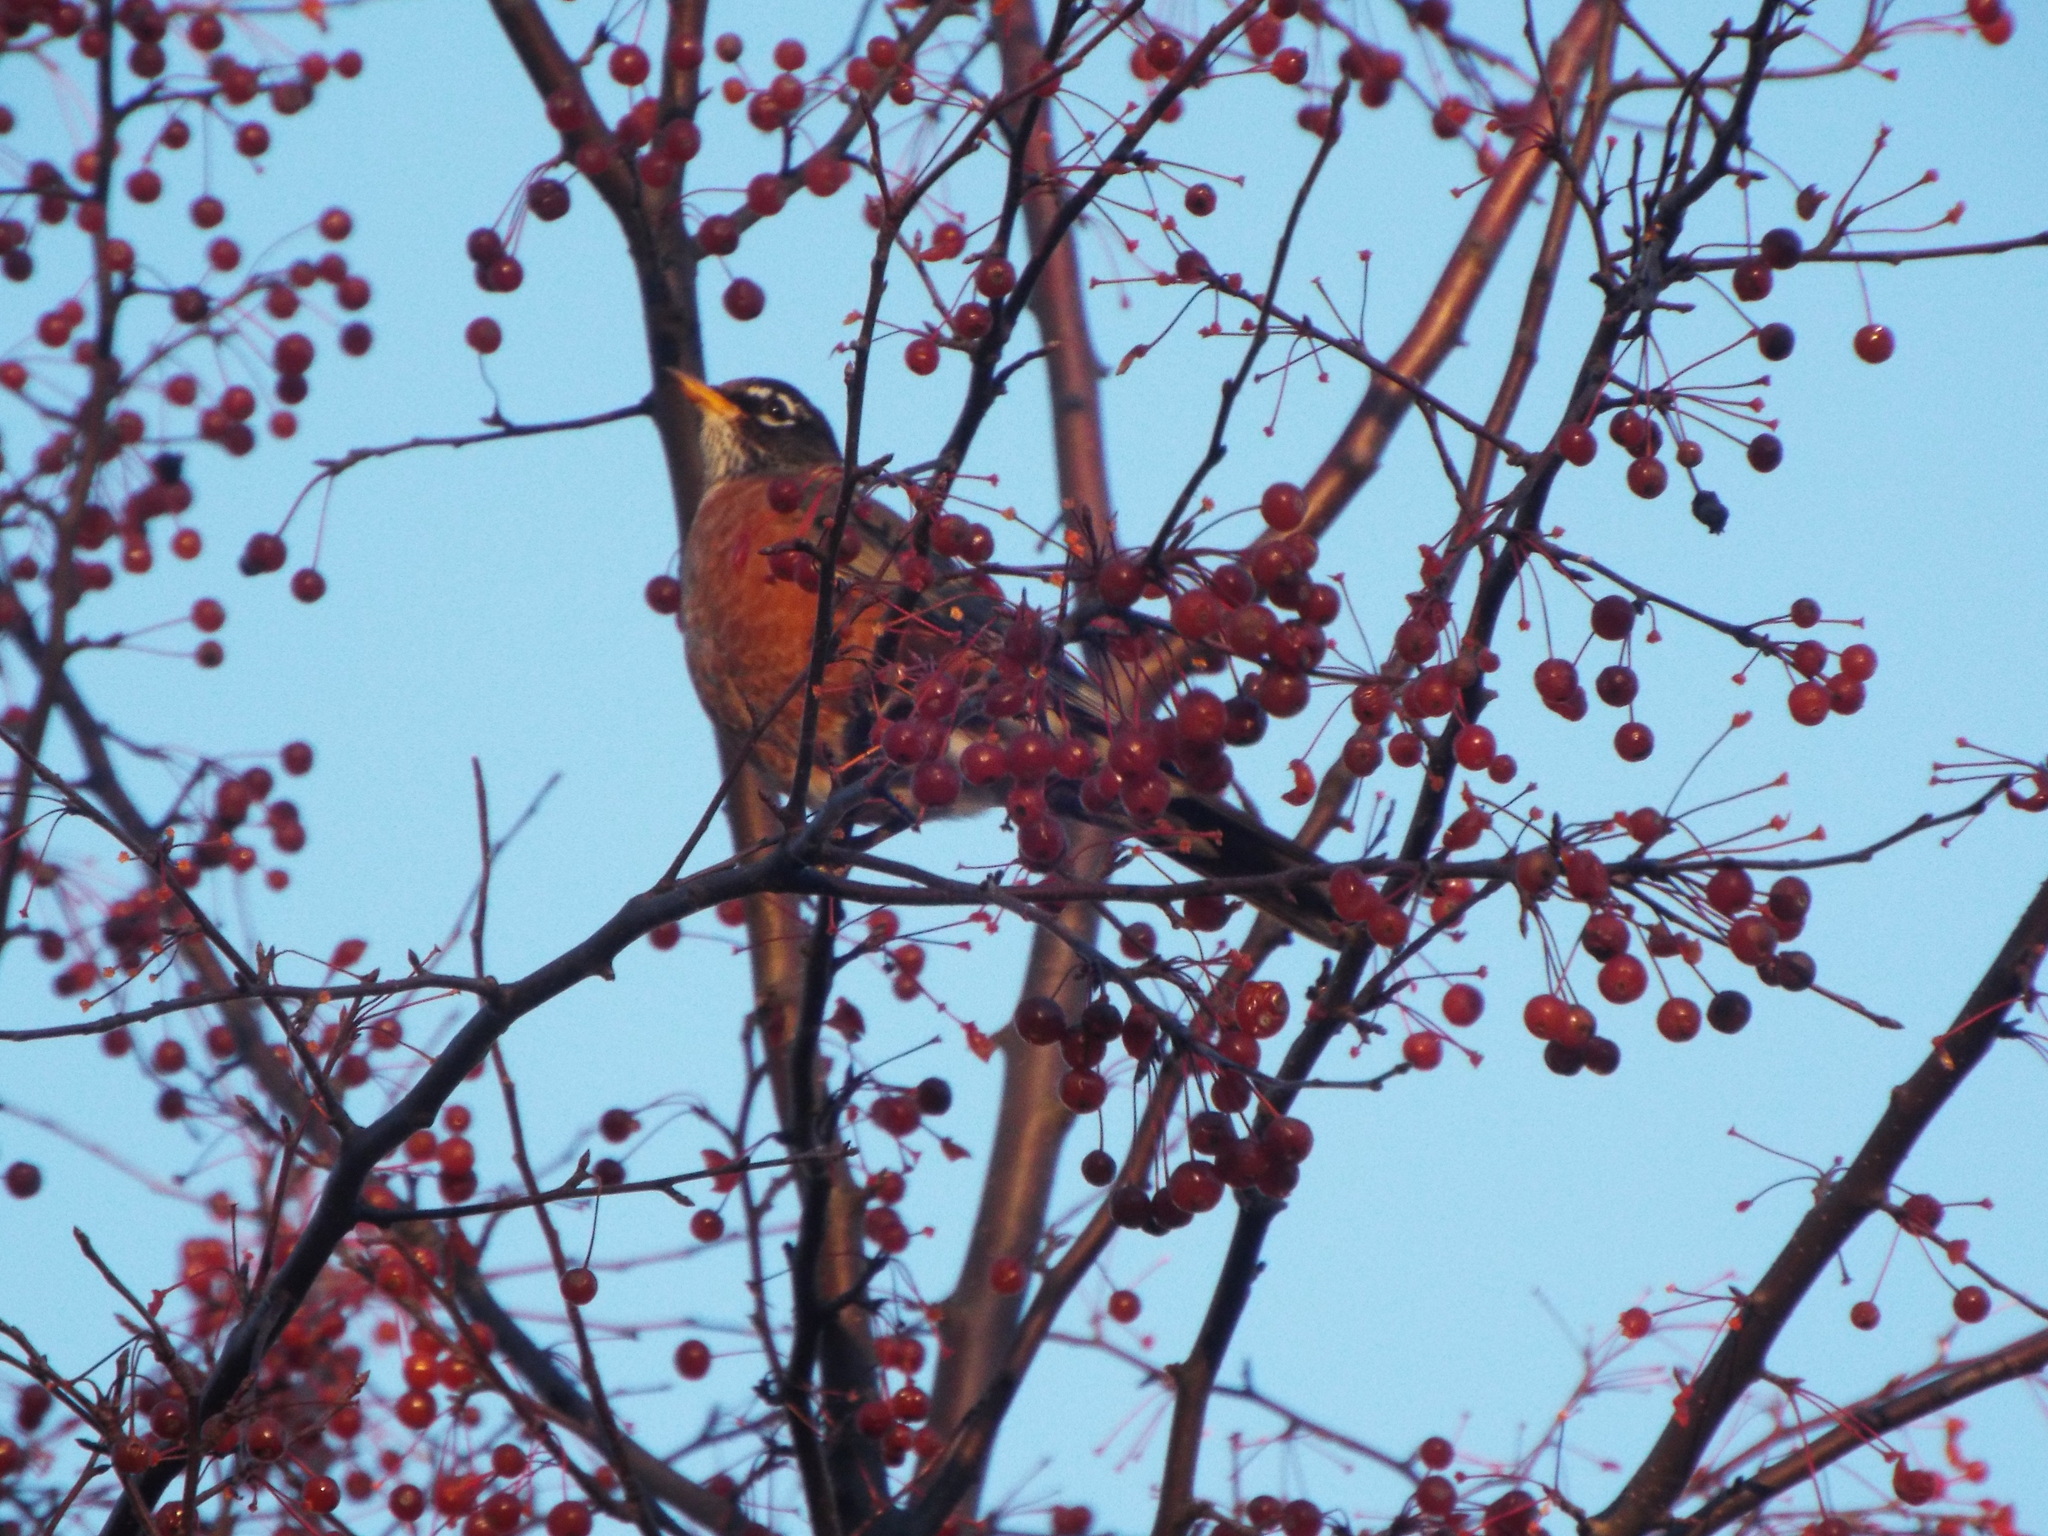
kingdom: Animalia
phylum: Chordata
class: Aves
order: Passeriformes
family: Turdidae
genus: Turdus
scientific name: Turdus migratorius
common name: American robin
